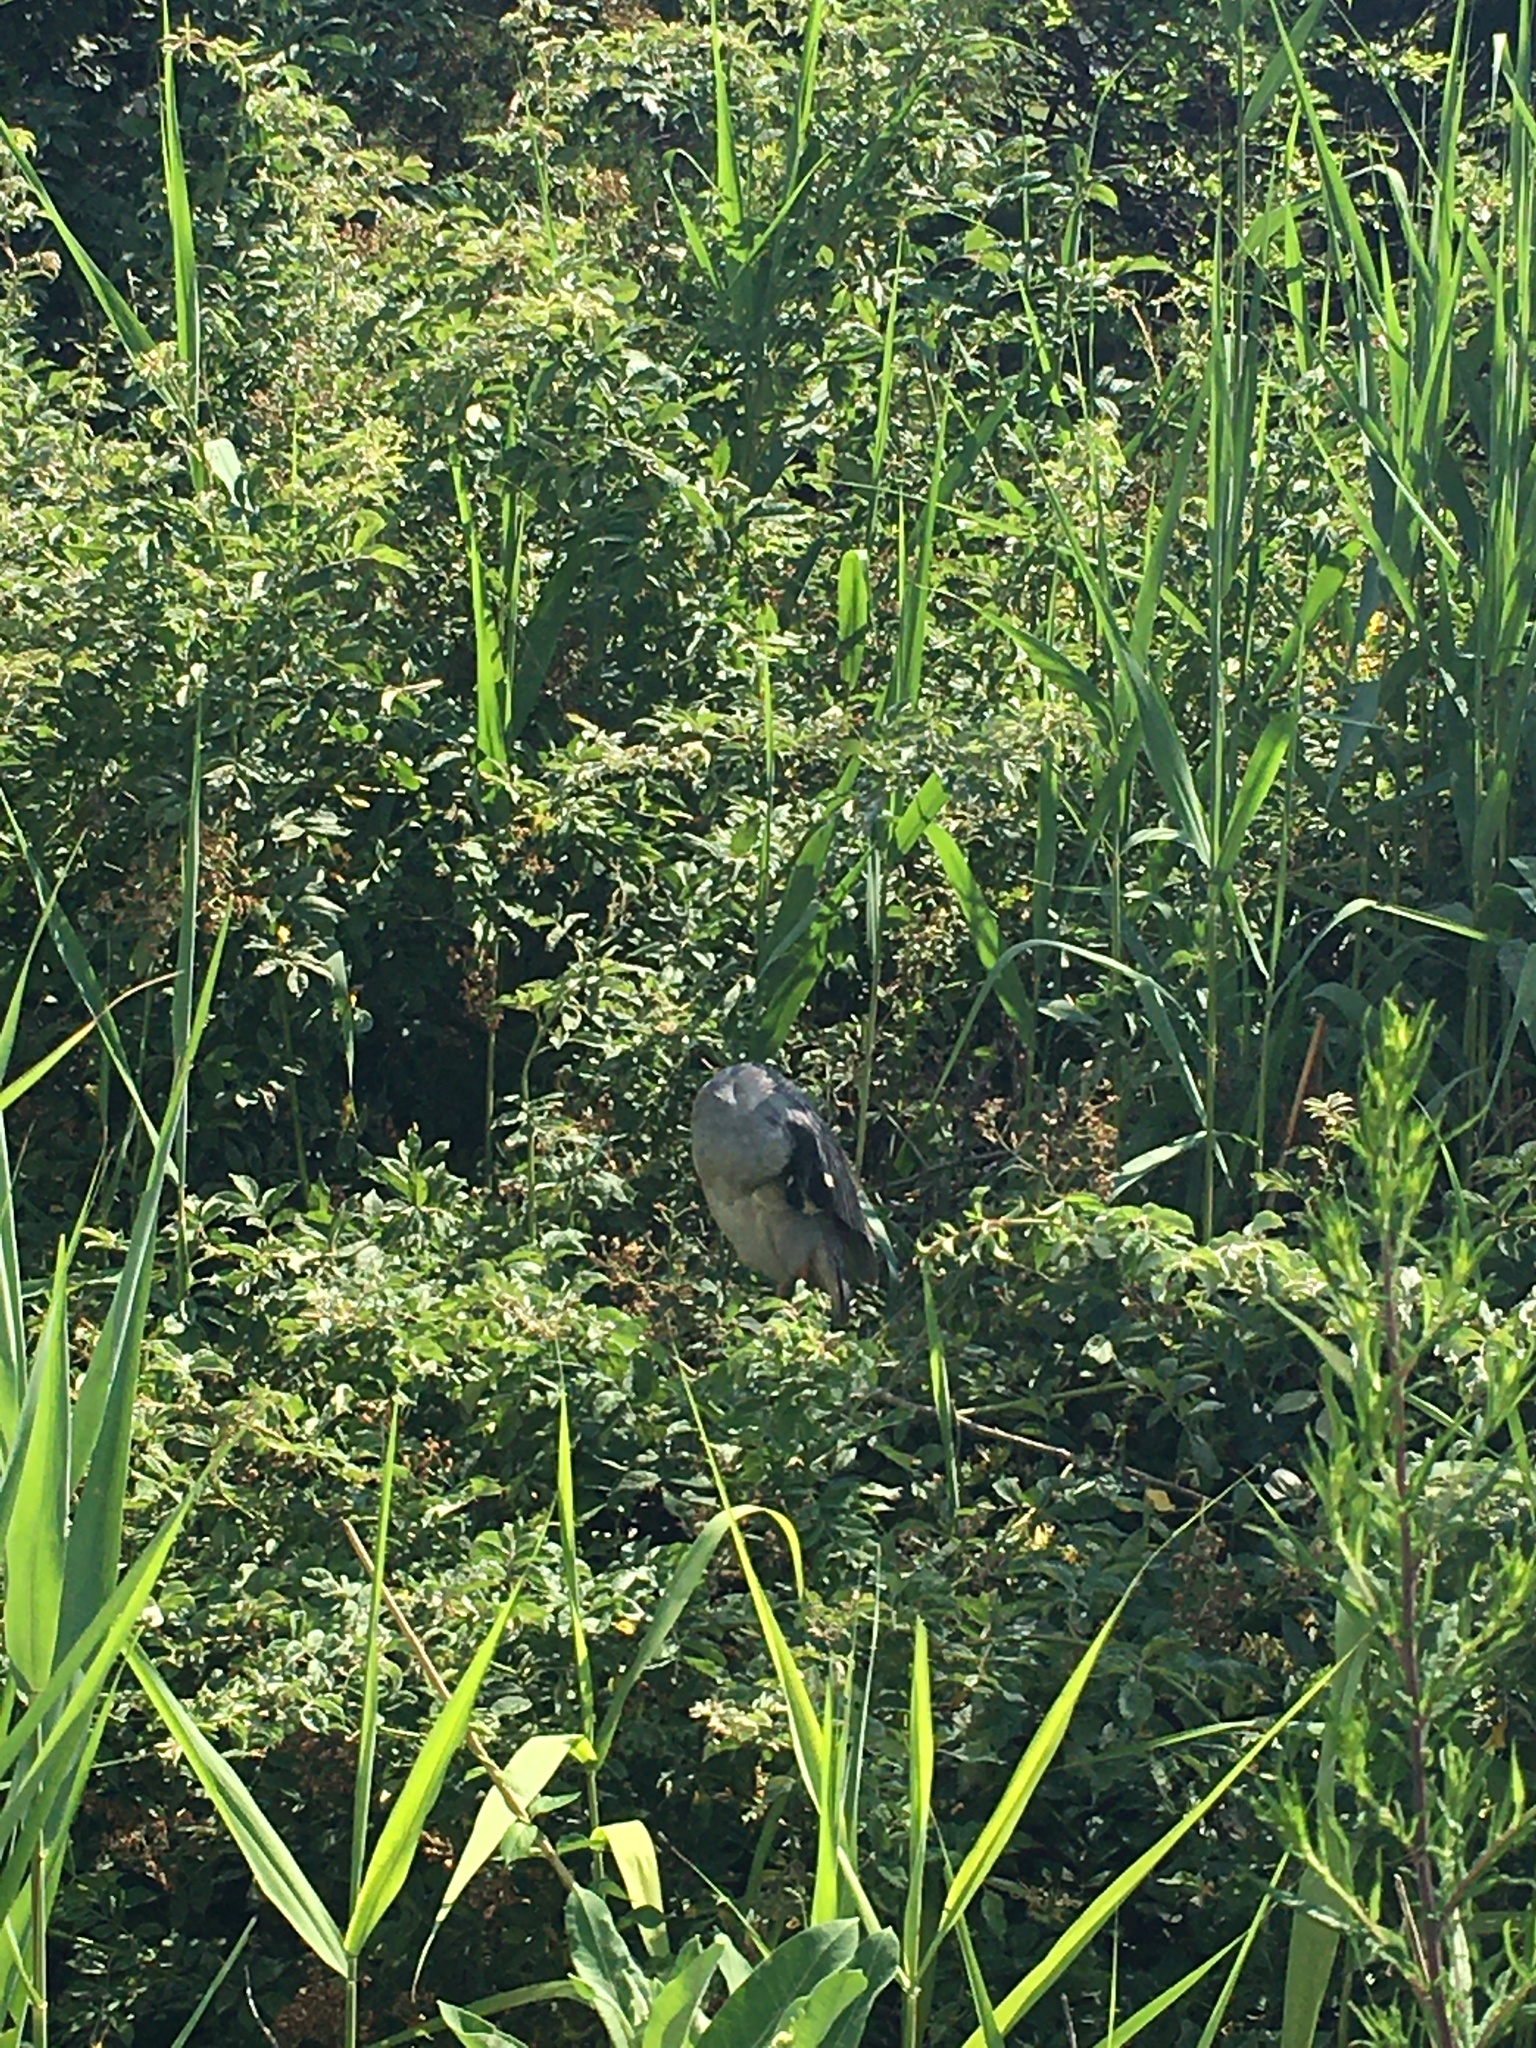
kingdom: Animalia
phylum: Chordata
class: Aves
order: Pelecaniformes
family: Ardeidae
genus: Nyctanassa
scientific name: Nyctanassa violacea
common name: Yellow-crowned night heron
